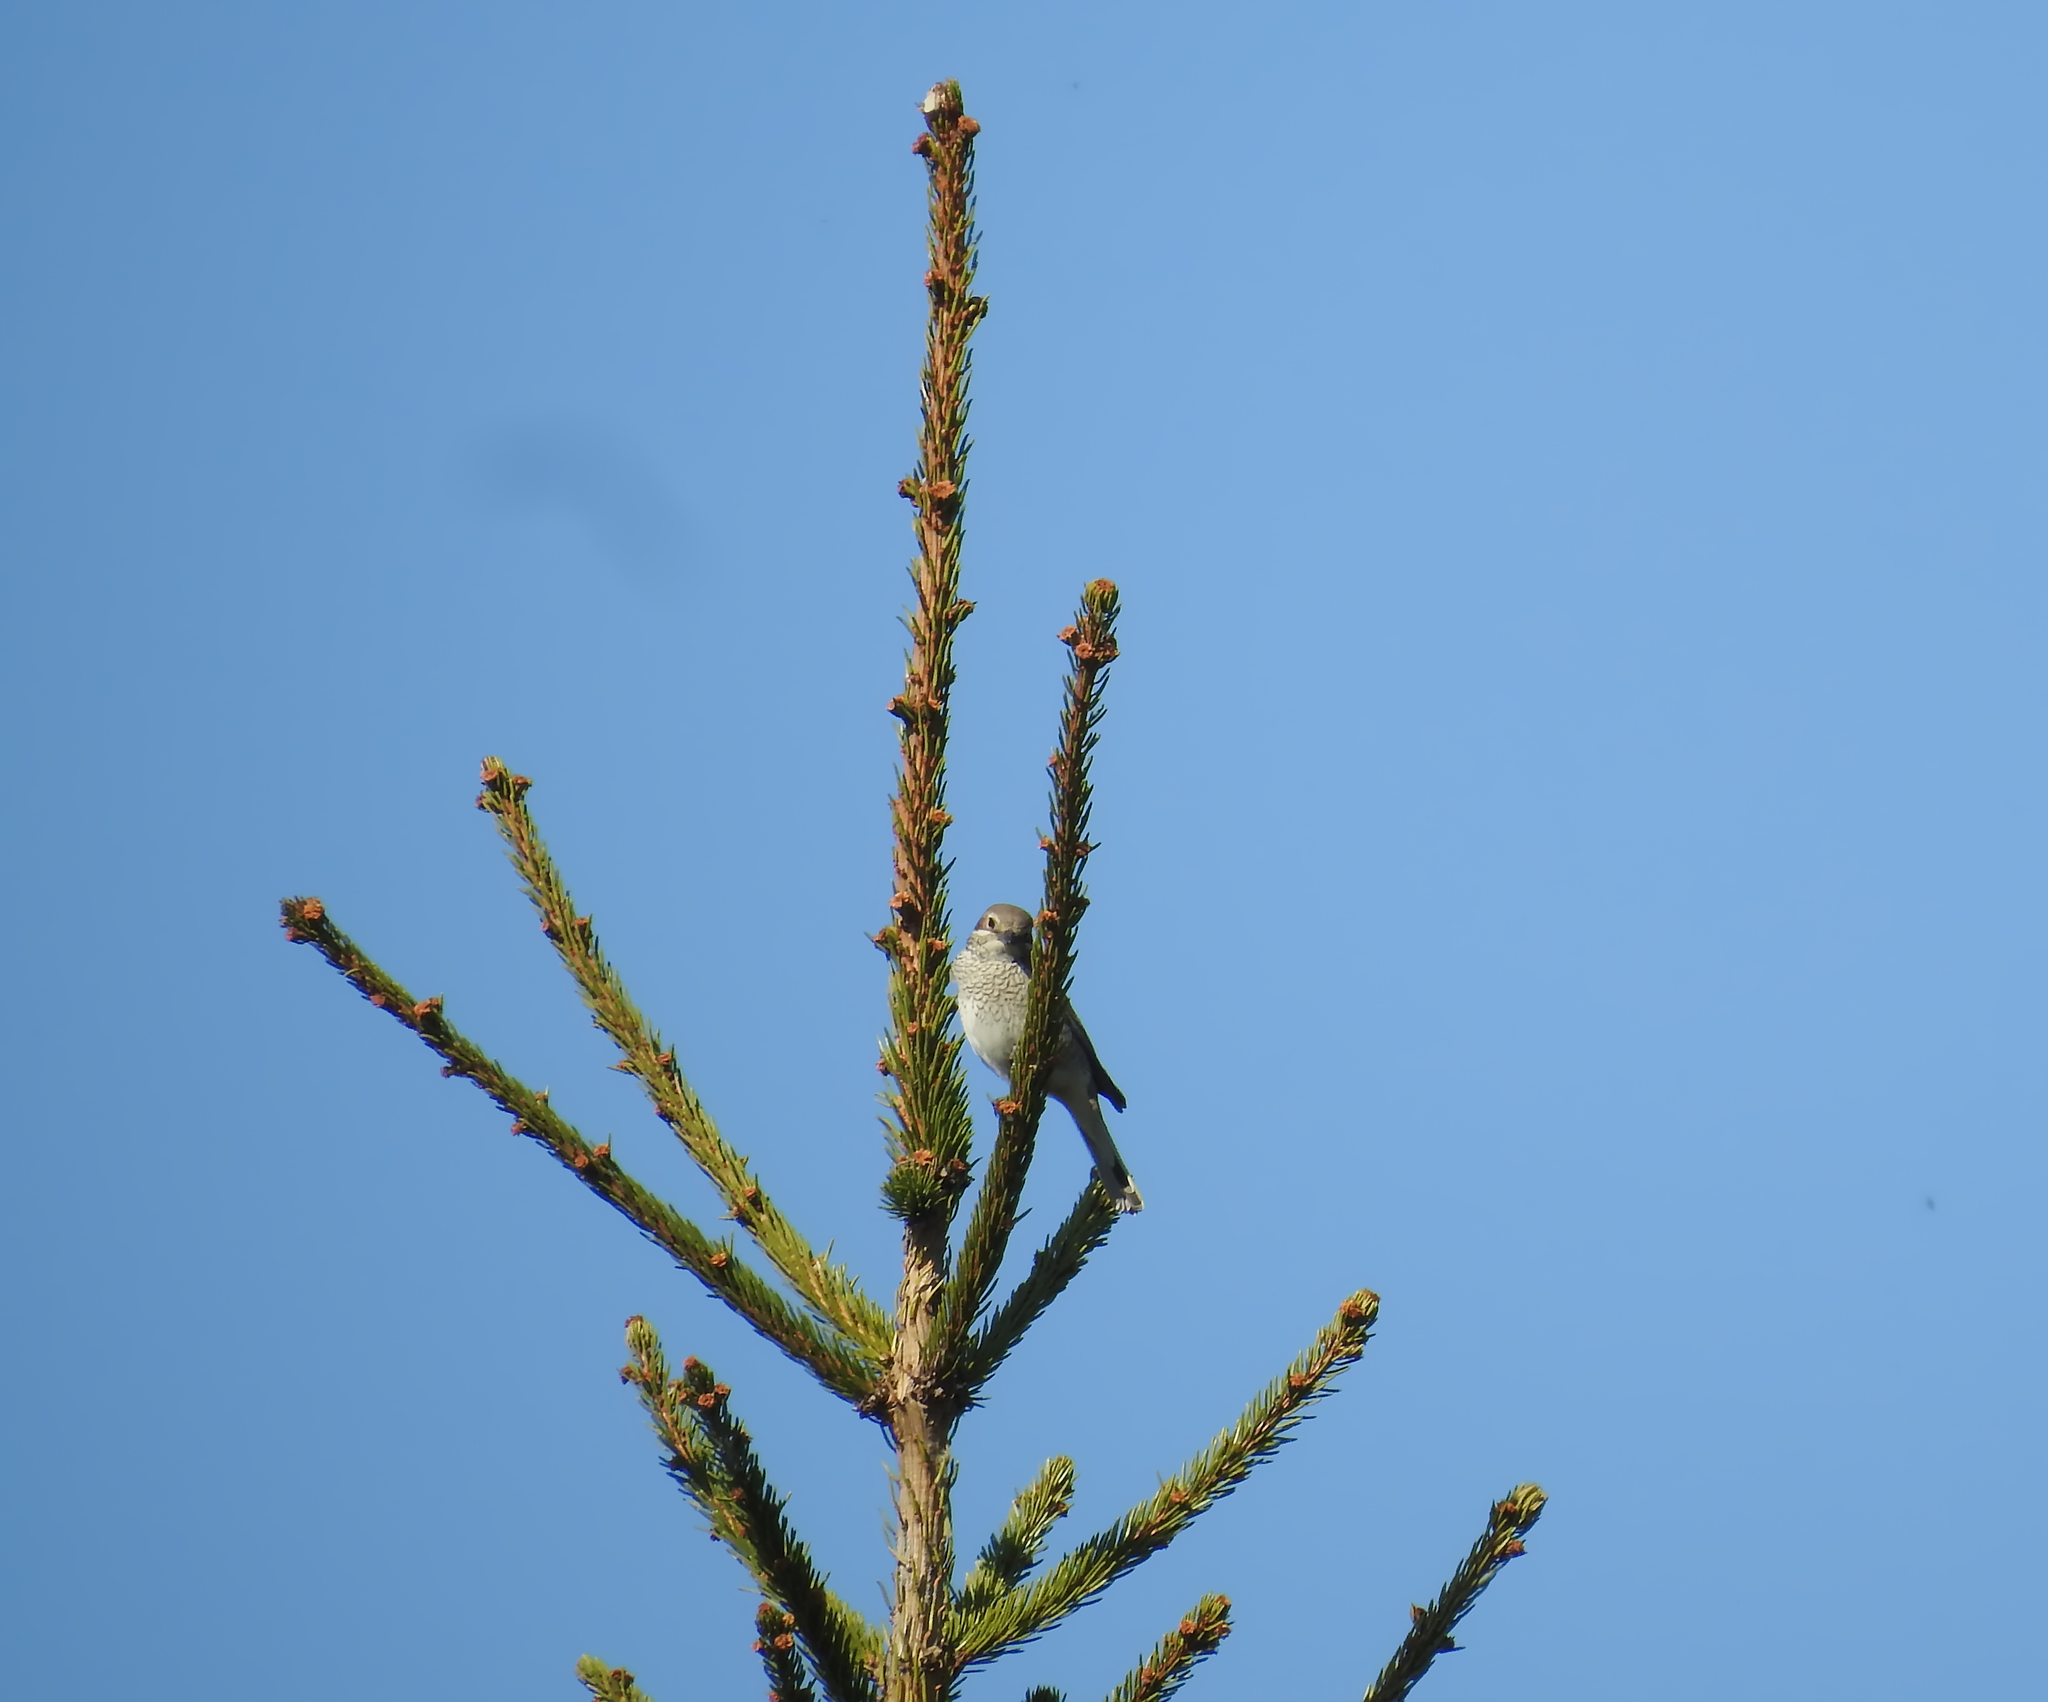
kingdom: Animalia
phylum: Chordata
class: Aves
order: Passeriformes
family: Laniidae
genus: Lanius
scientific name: Lanius collurio
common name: Red-backed shrike
